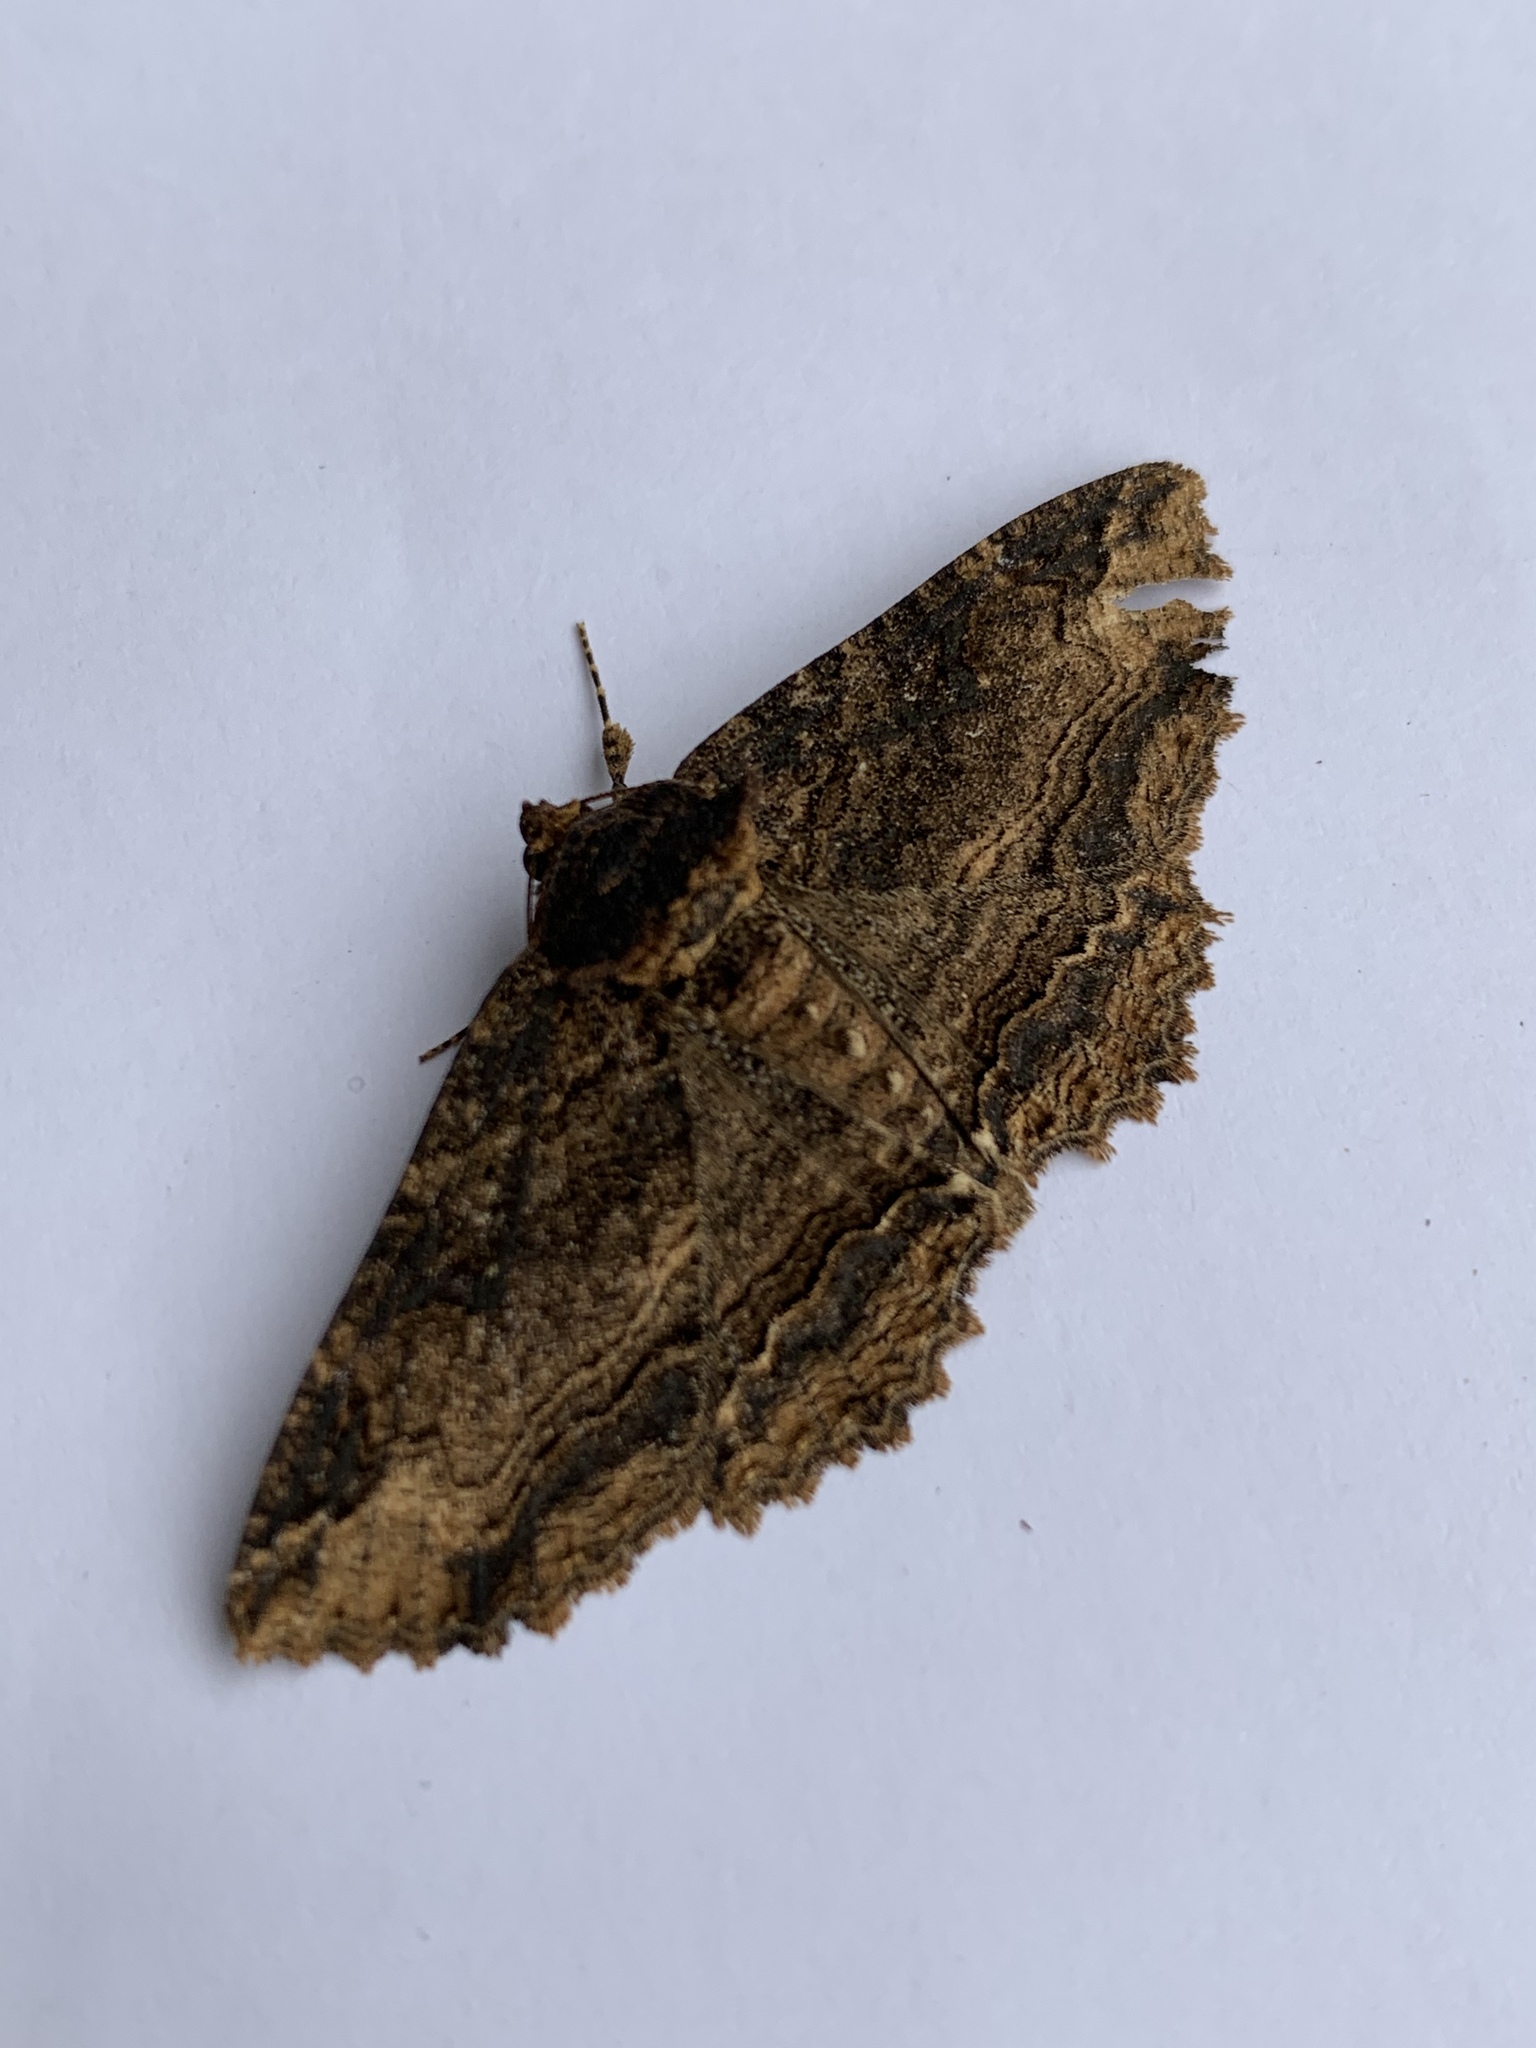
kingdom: Animalia
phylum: Arthropoda
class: Insecta
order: Lepidoptera
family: Erebidae
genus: Zale
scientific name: Zale minerea
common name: Colorful zale moth
